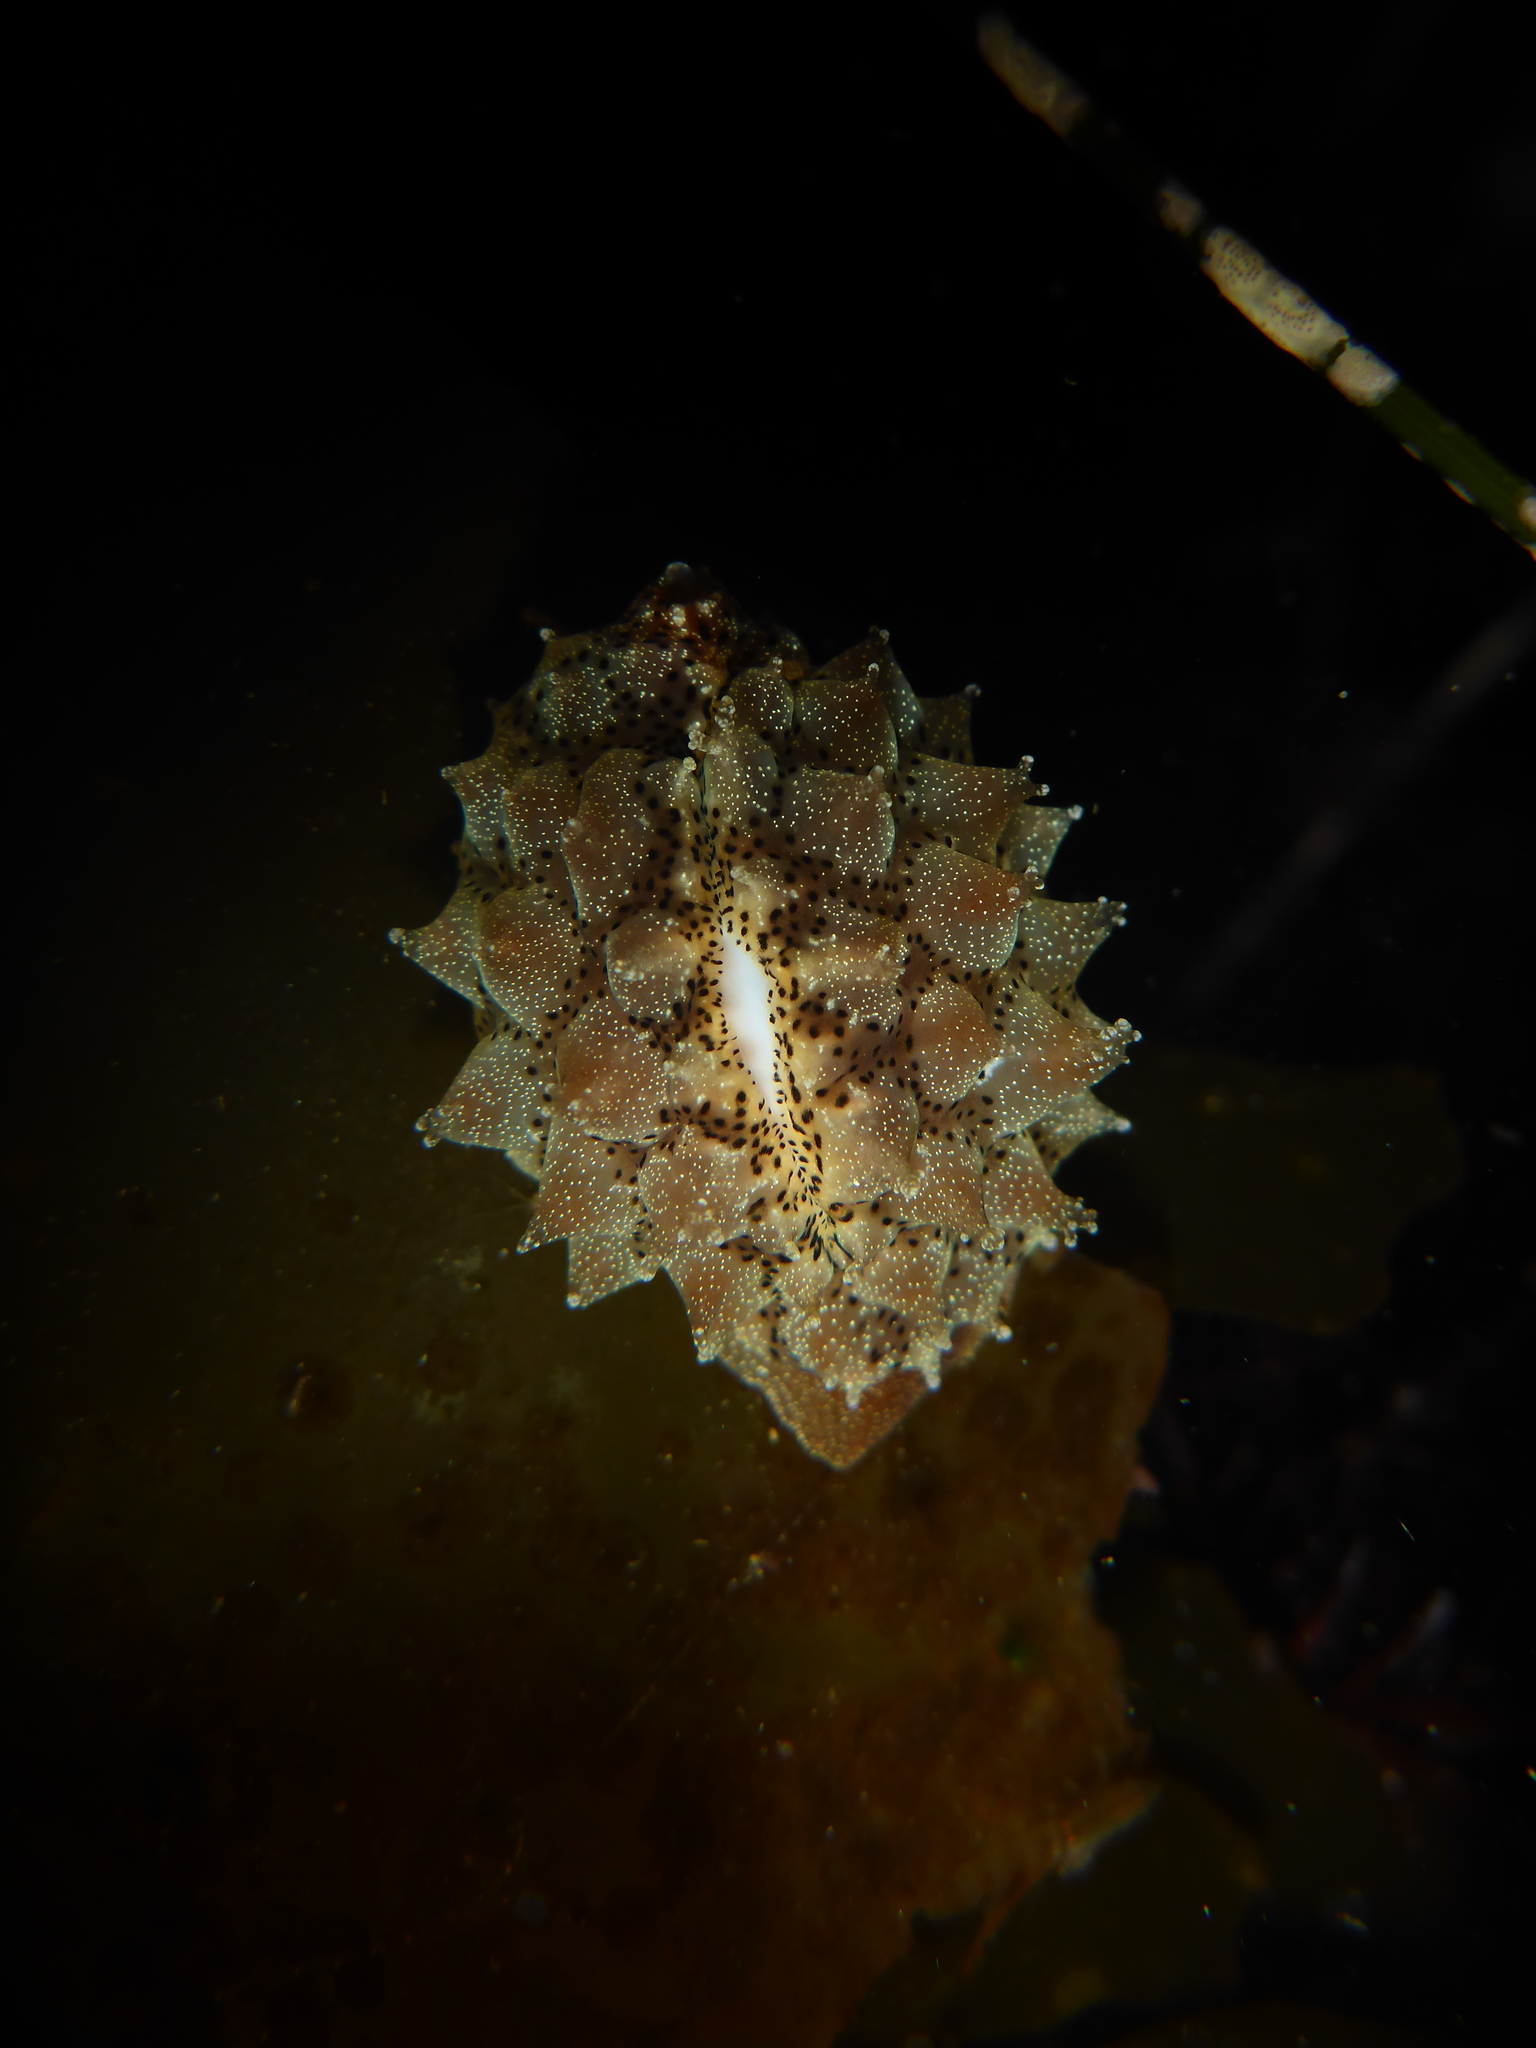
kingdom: Animalia
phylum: Mollusca
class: Gastropoda
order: Littorinimorpha
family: Triviidae
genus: Pusula
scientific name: Pusula solandri
